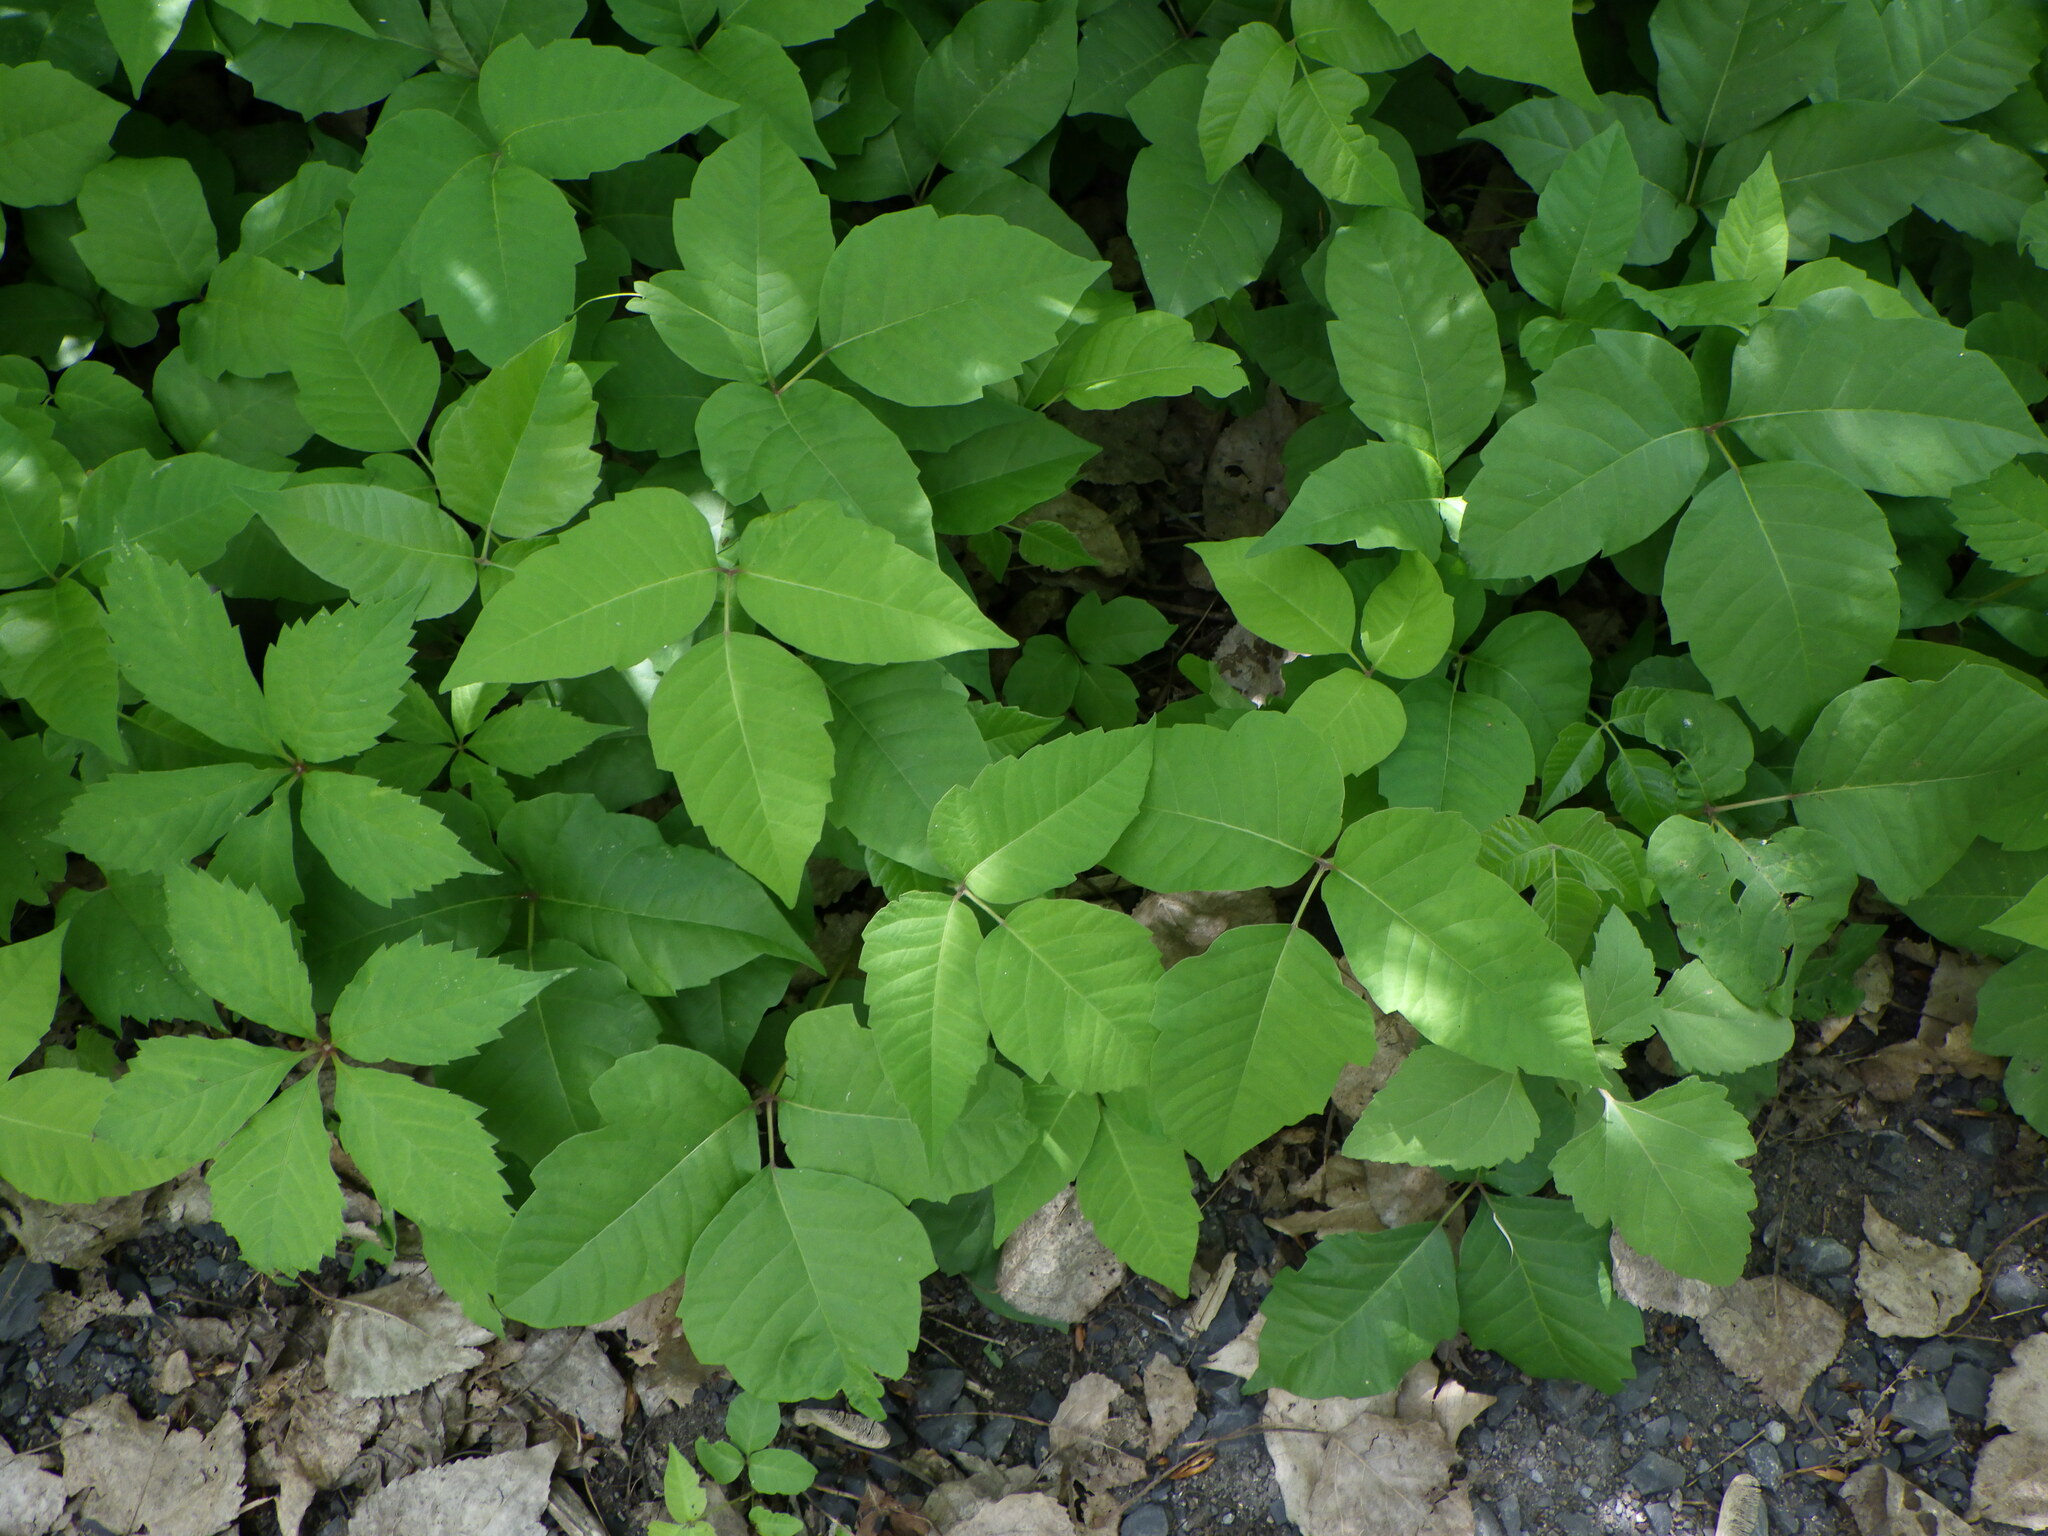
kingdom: Plantae
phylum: Tracheophyta
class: Magnoliopsida
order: Sapindales
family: Anacardiaceae
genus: Toxicodendron
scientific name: Toxicodendron radicans
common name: Poison ivy
